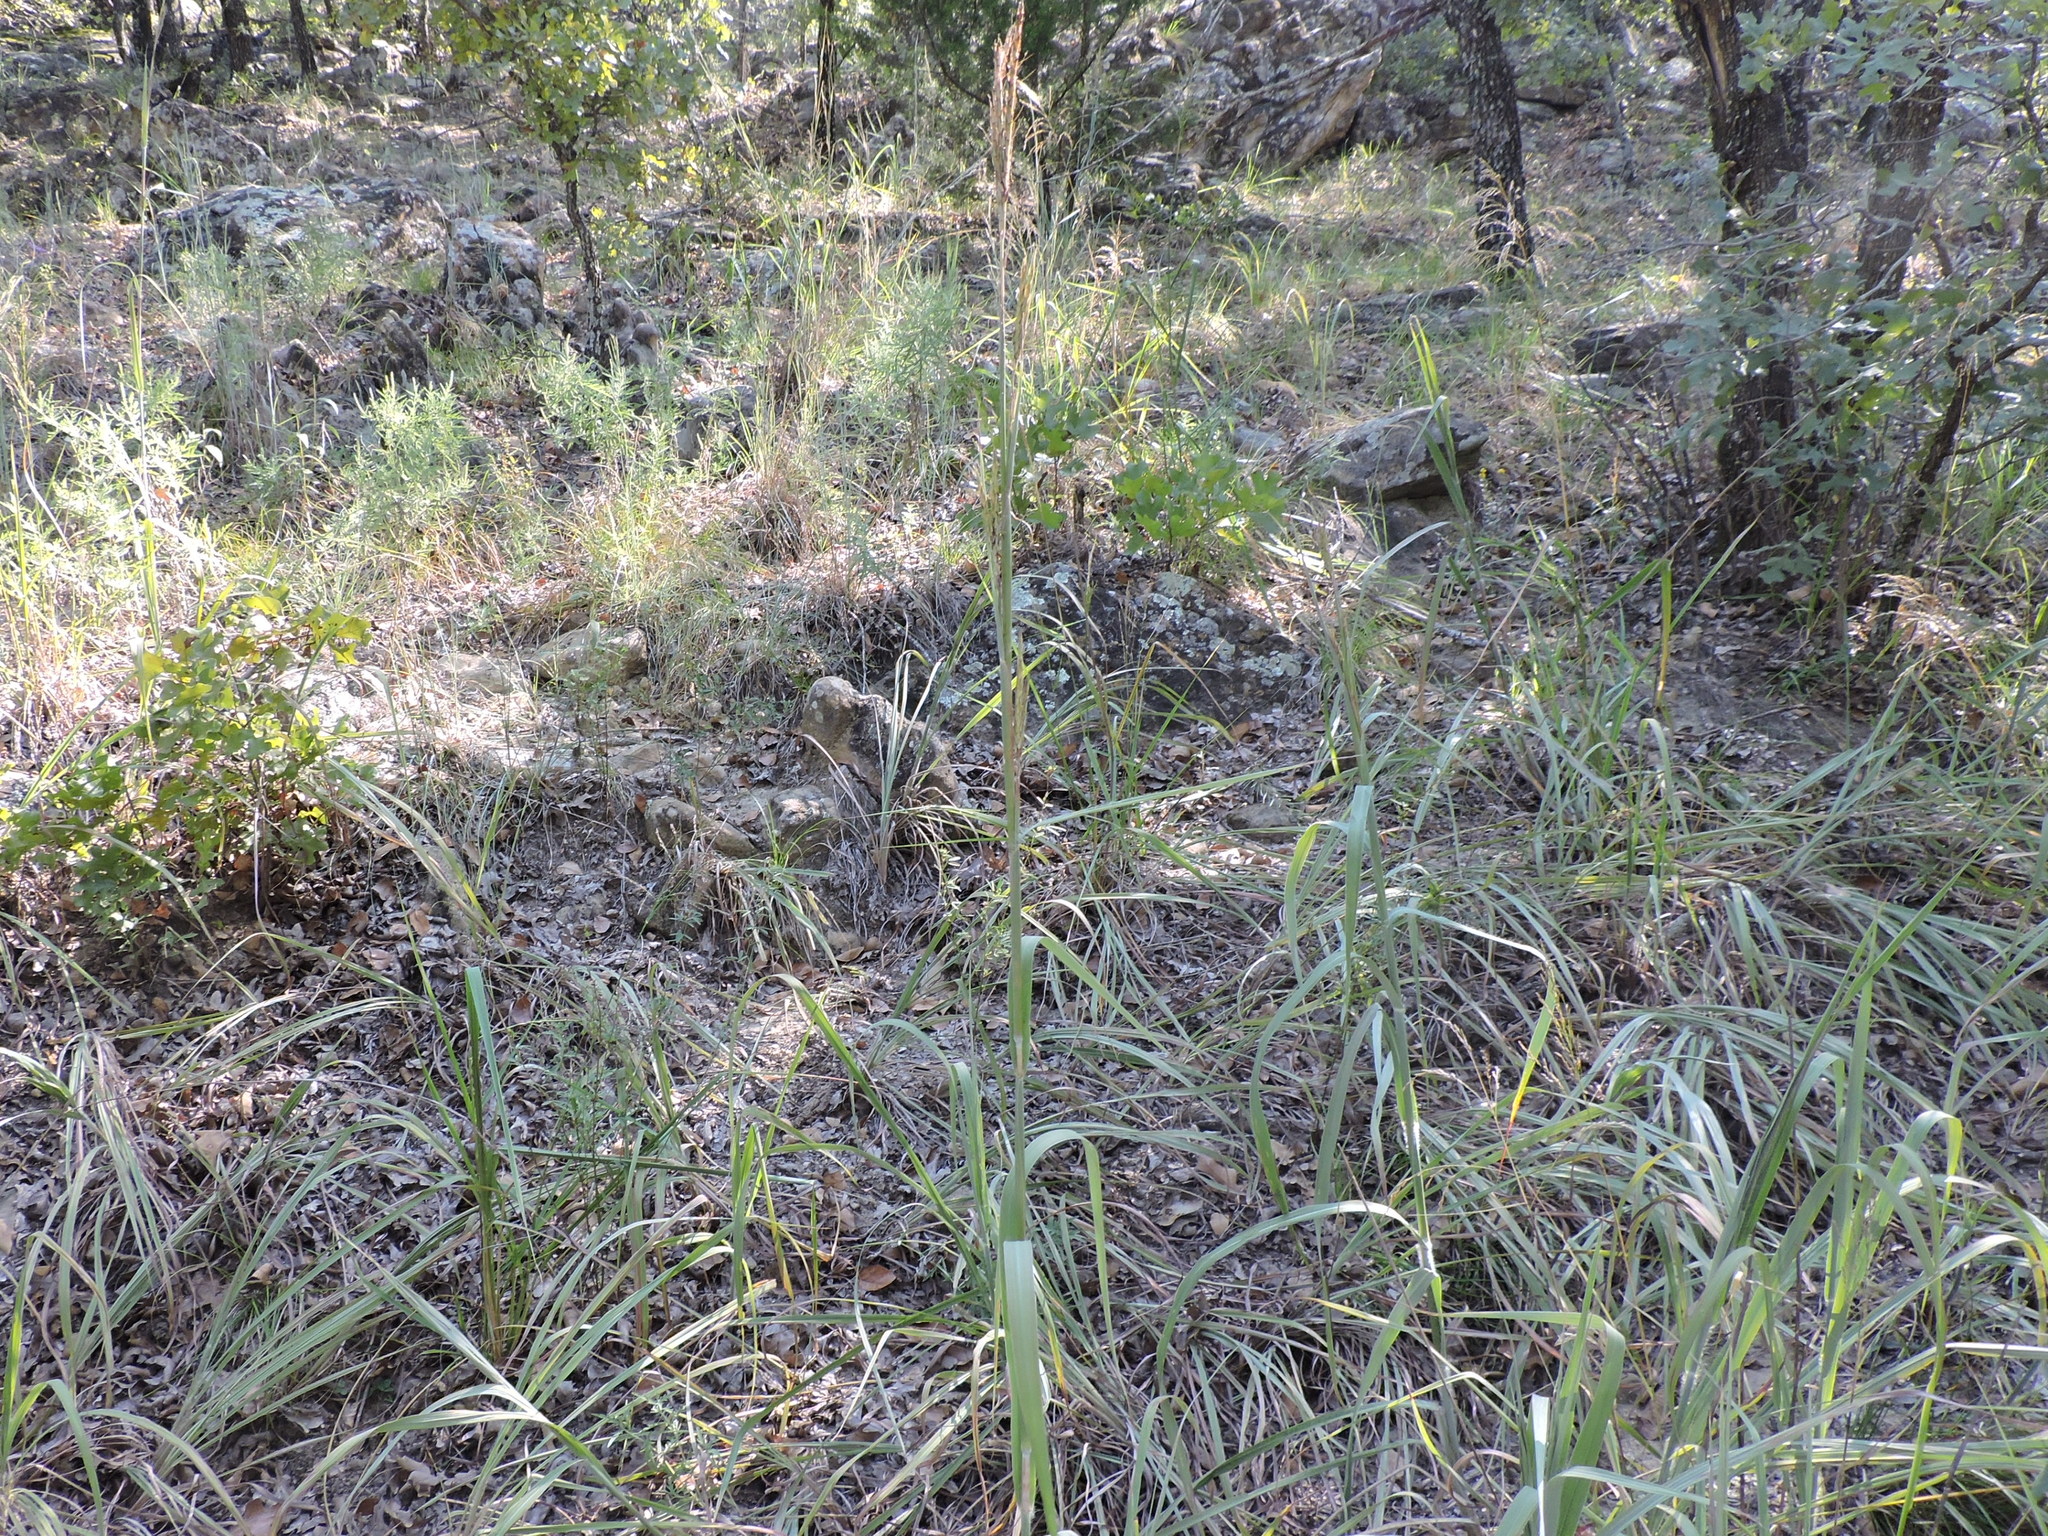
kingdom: Plantae
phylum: Tracheophyta
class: Liliopsida
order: Poales
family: Poaceae
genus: Andropogon
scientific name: Andropogon gerardi
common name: Big bluestem
